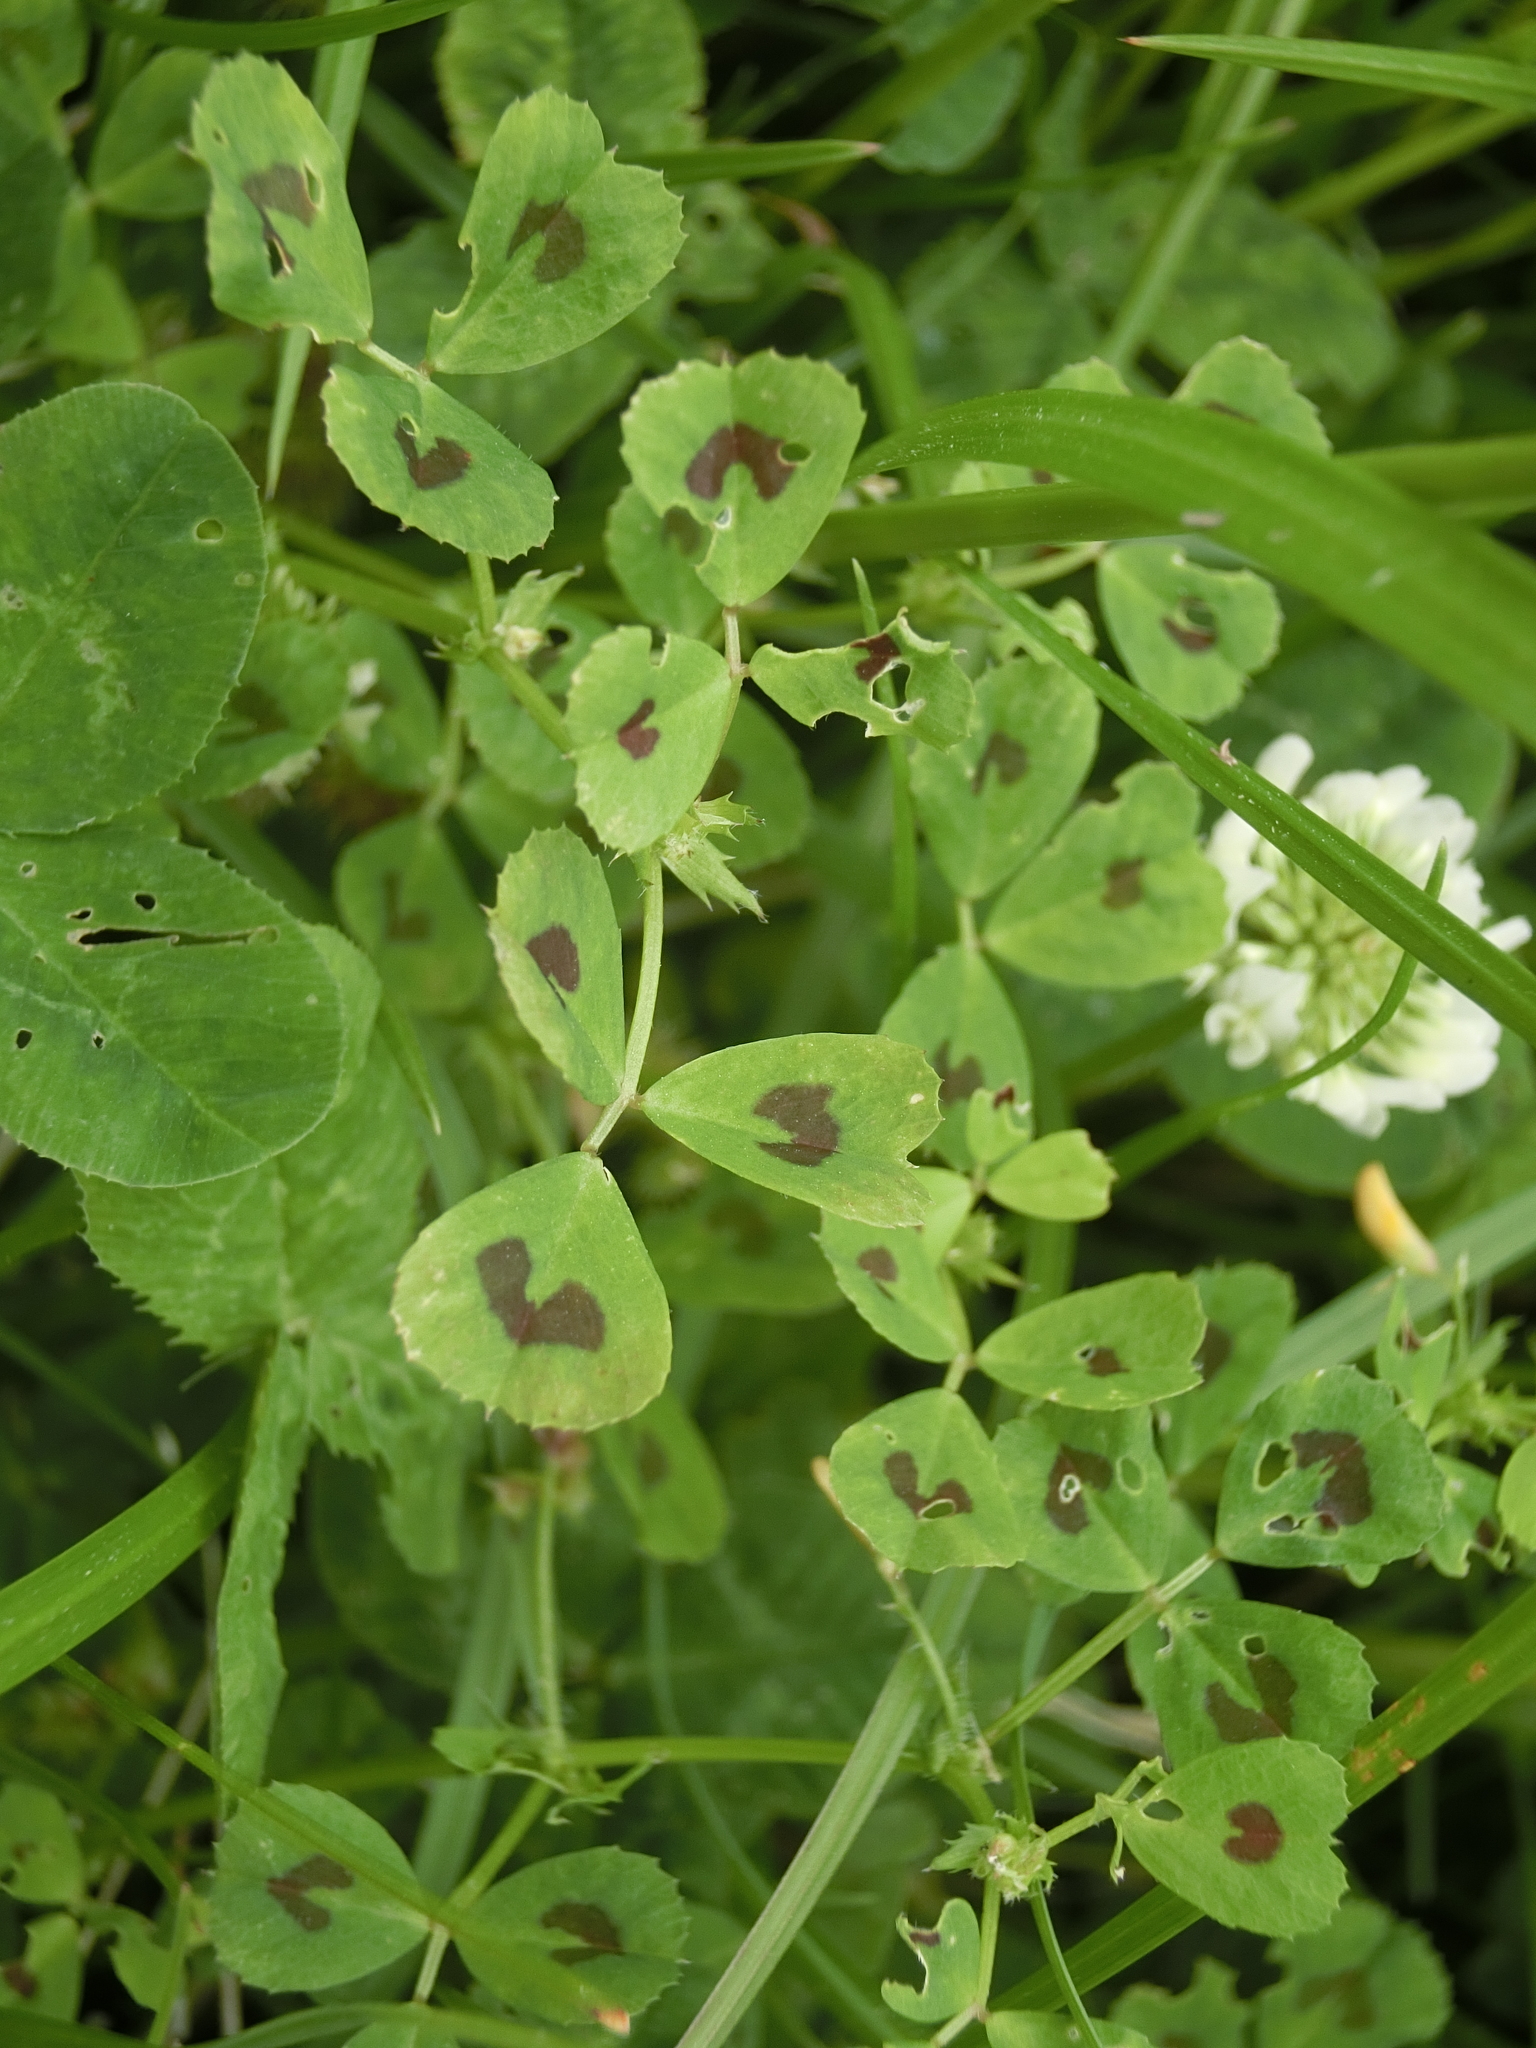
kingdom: Plantae
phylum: Tracheophyta
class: Magnoliopsida
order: Fabales
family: Fabaceae
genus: Medicago
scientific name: Medicago arabica
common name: Spotted medick
